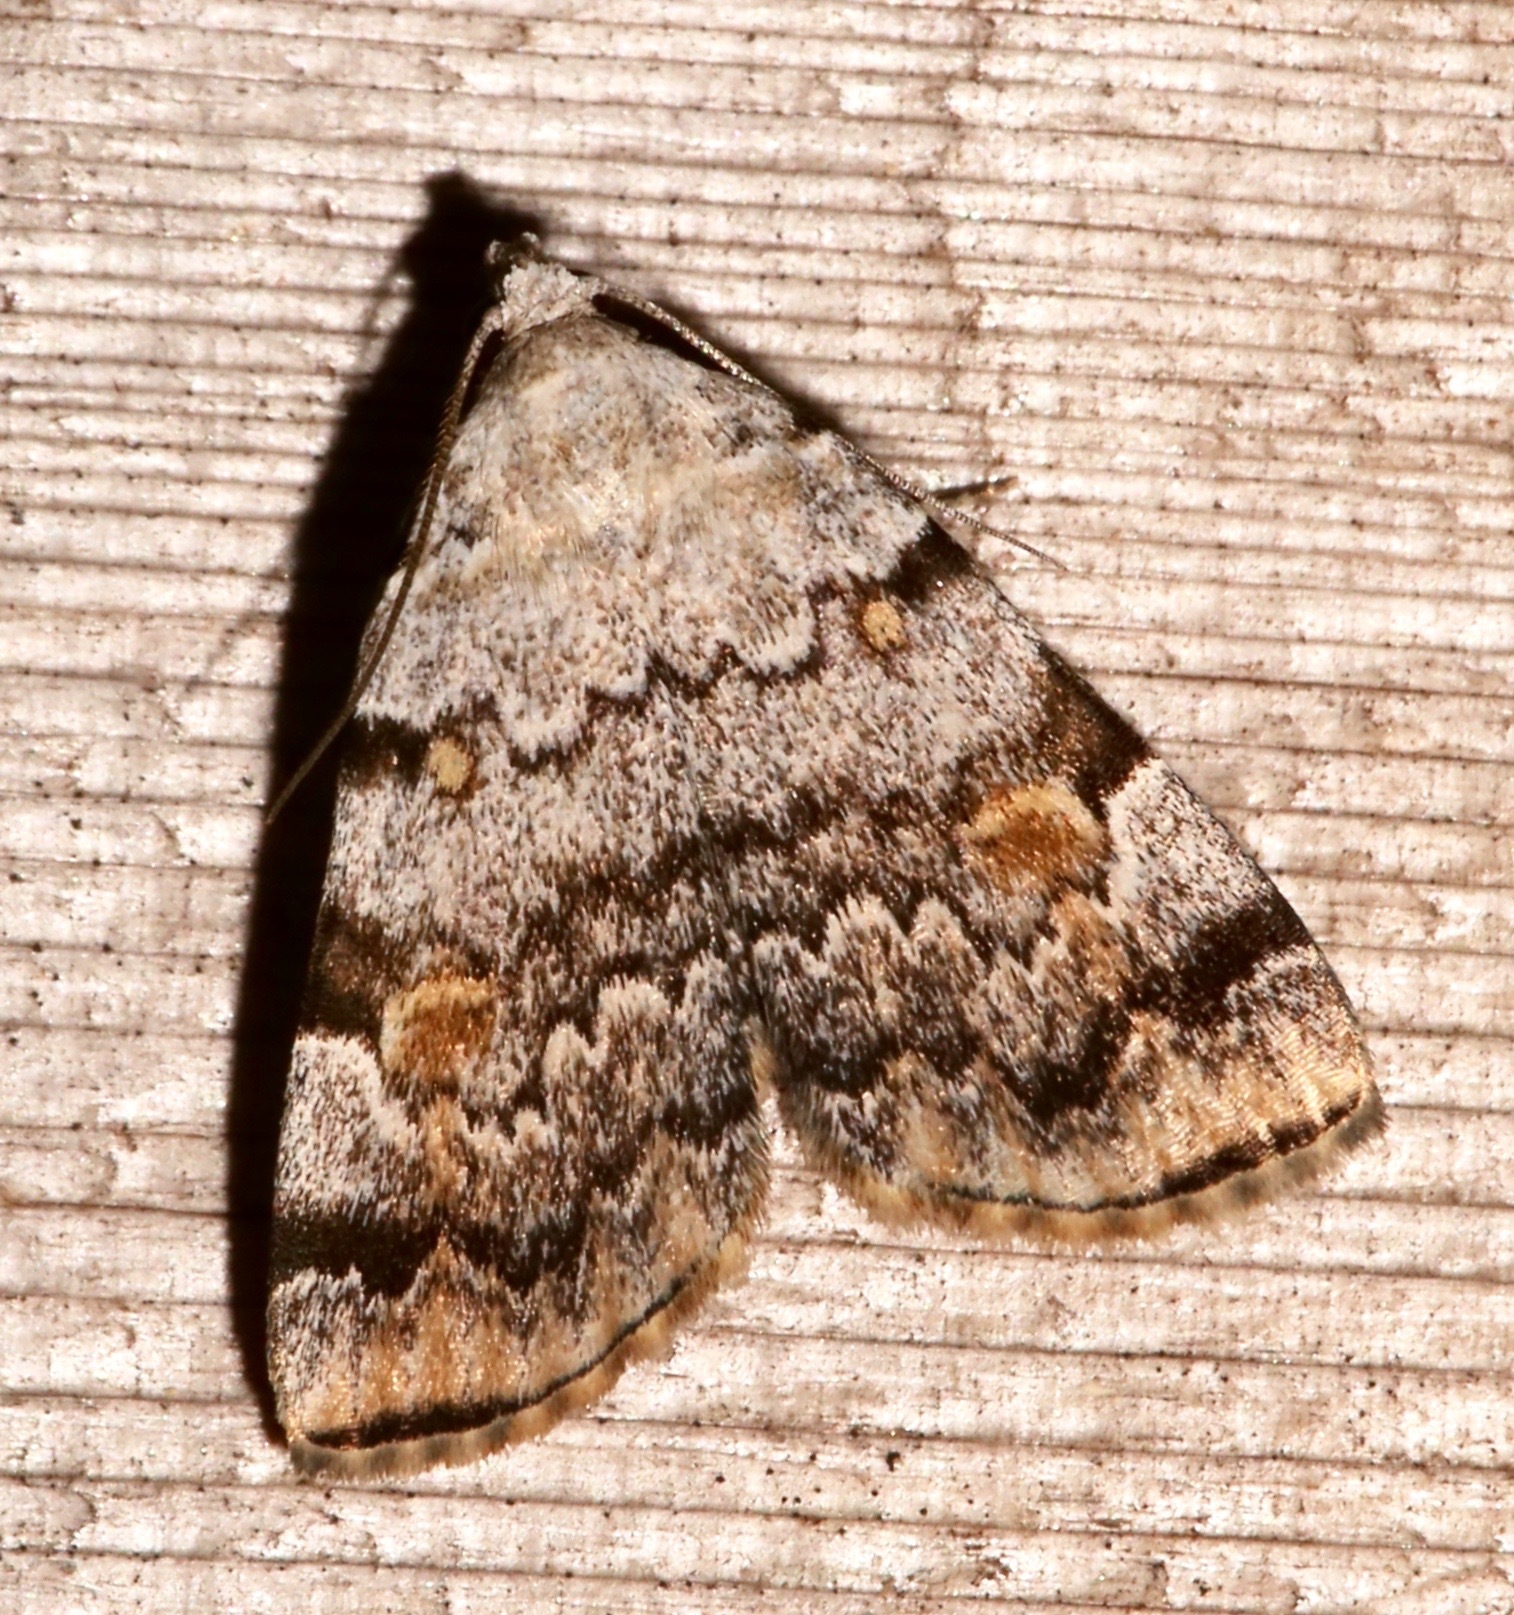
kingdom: Animalia
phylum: Arthropoda
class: Insecta
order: Lepidoptera
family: Erebidae
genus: Idia
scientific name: Idia americalis
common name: American idia moth
